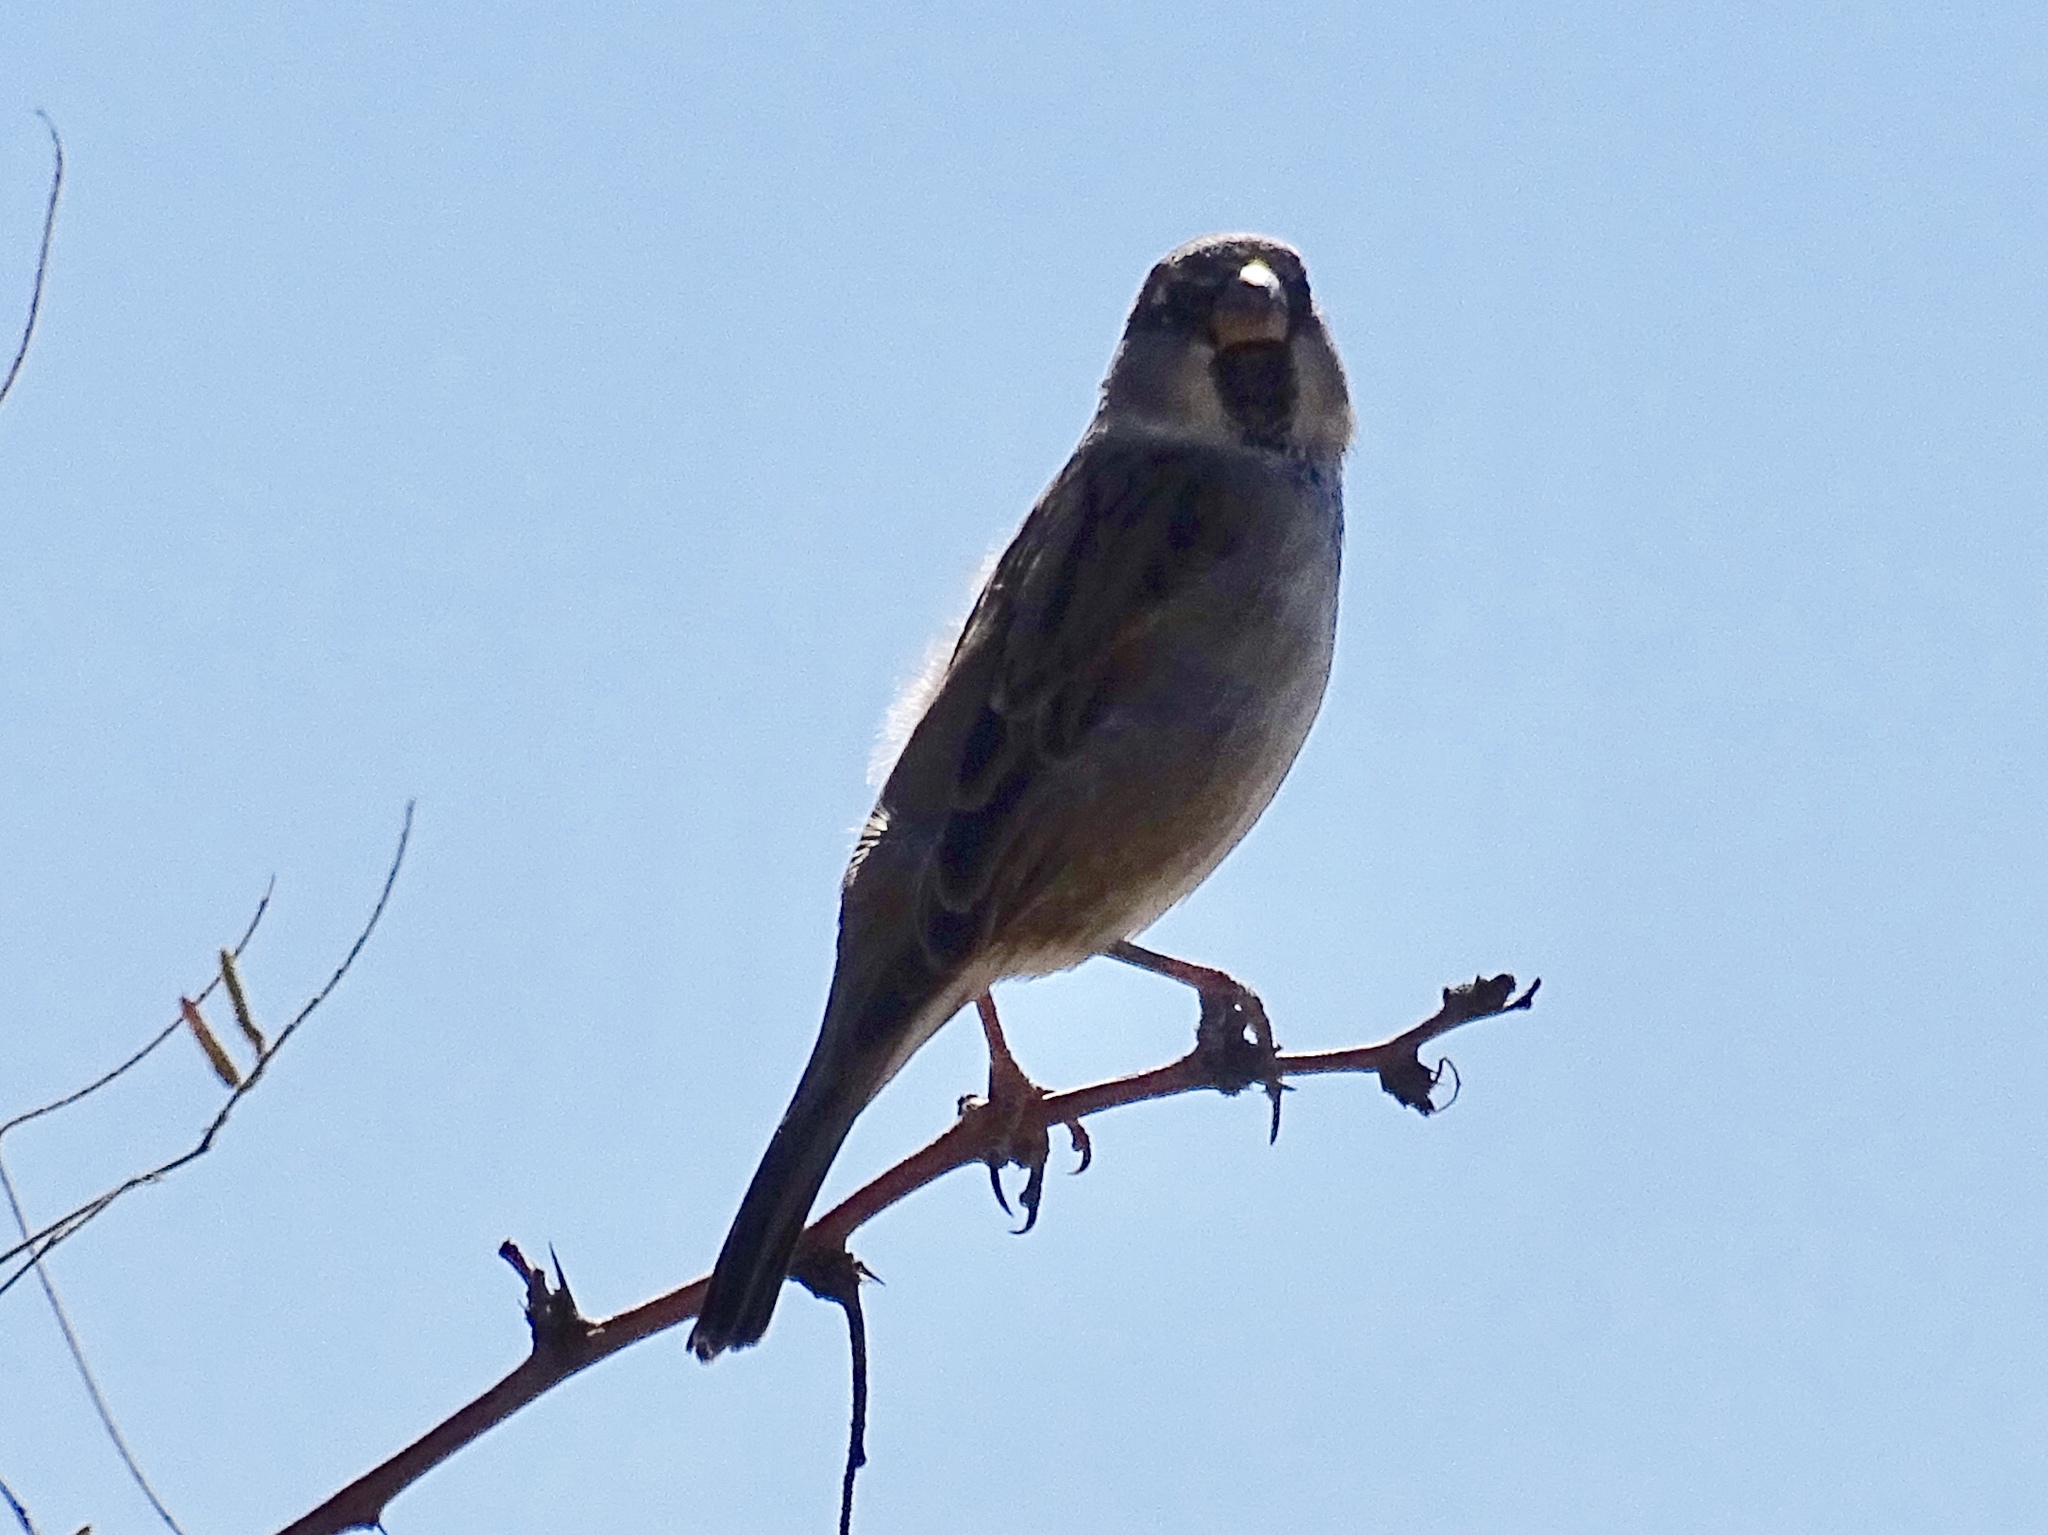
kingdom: Animalia
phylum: Chordata
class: Aves
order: Passeriformes
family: Passeridae
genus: Passer
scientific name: Passer domesticus
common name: House sparrow
